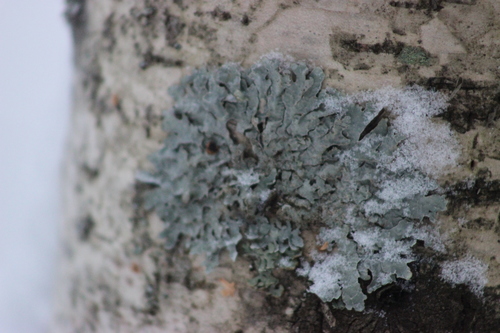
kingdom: Fungi
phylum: Ascomycota
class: Lecanoromycetes
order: Lecanorales
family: Parmeliaceae
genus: Parmelia
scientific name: Parmelia sulcata
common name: Netted shield lichen
